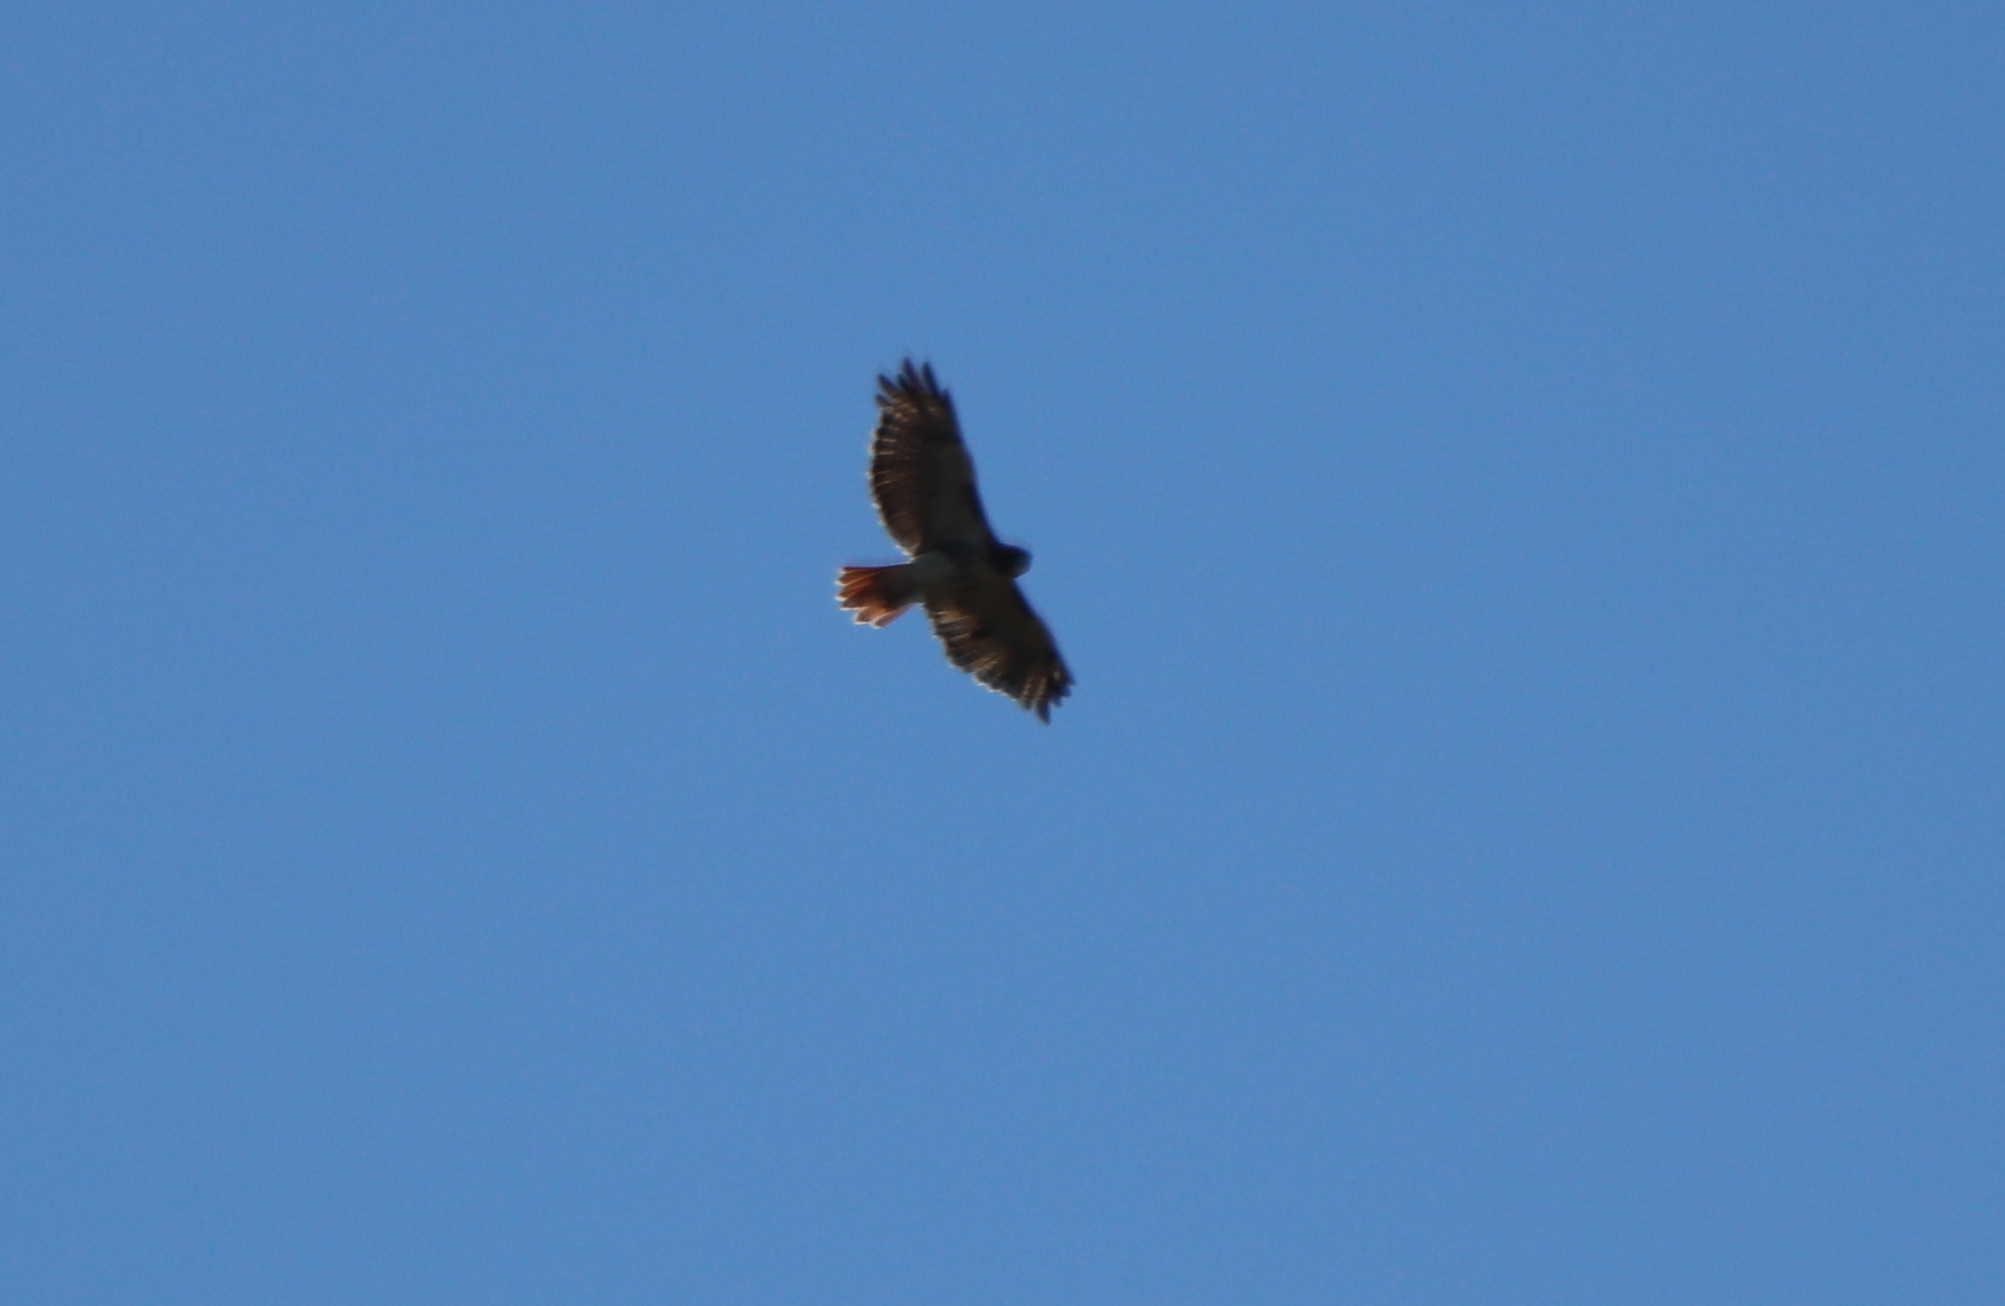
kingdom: Animalia
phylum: Chordata
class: Aves
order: Accipitriformes
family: Accipitridae
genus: Buteo
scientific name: Buteo jamaicensis
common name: Red-tailed hawk
